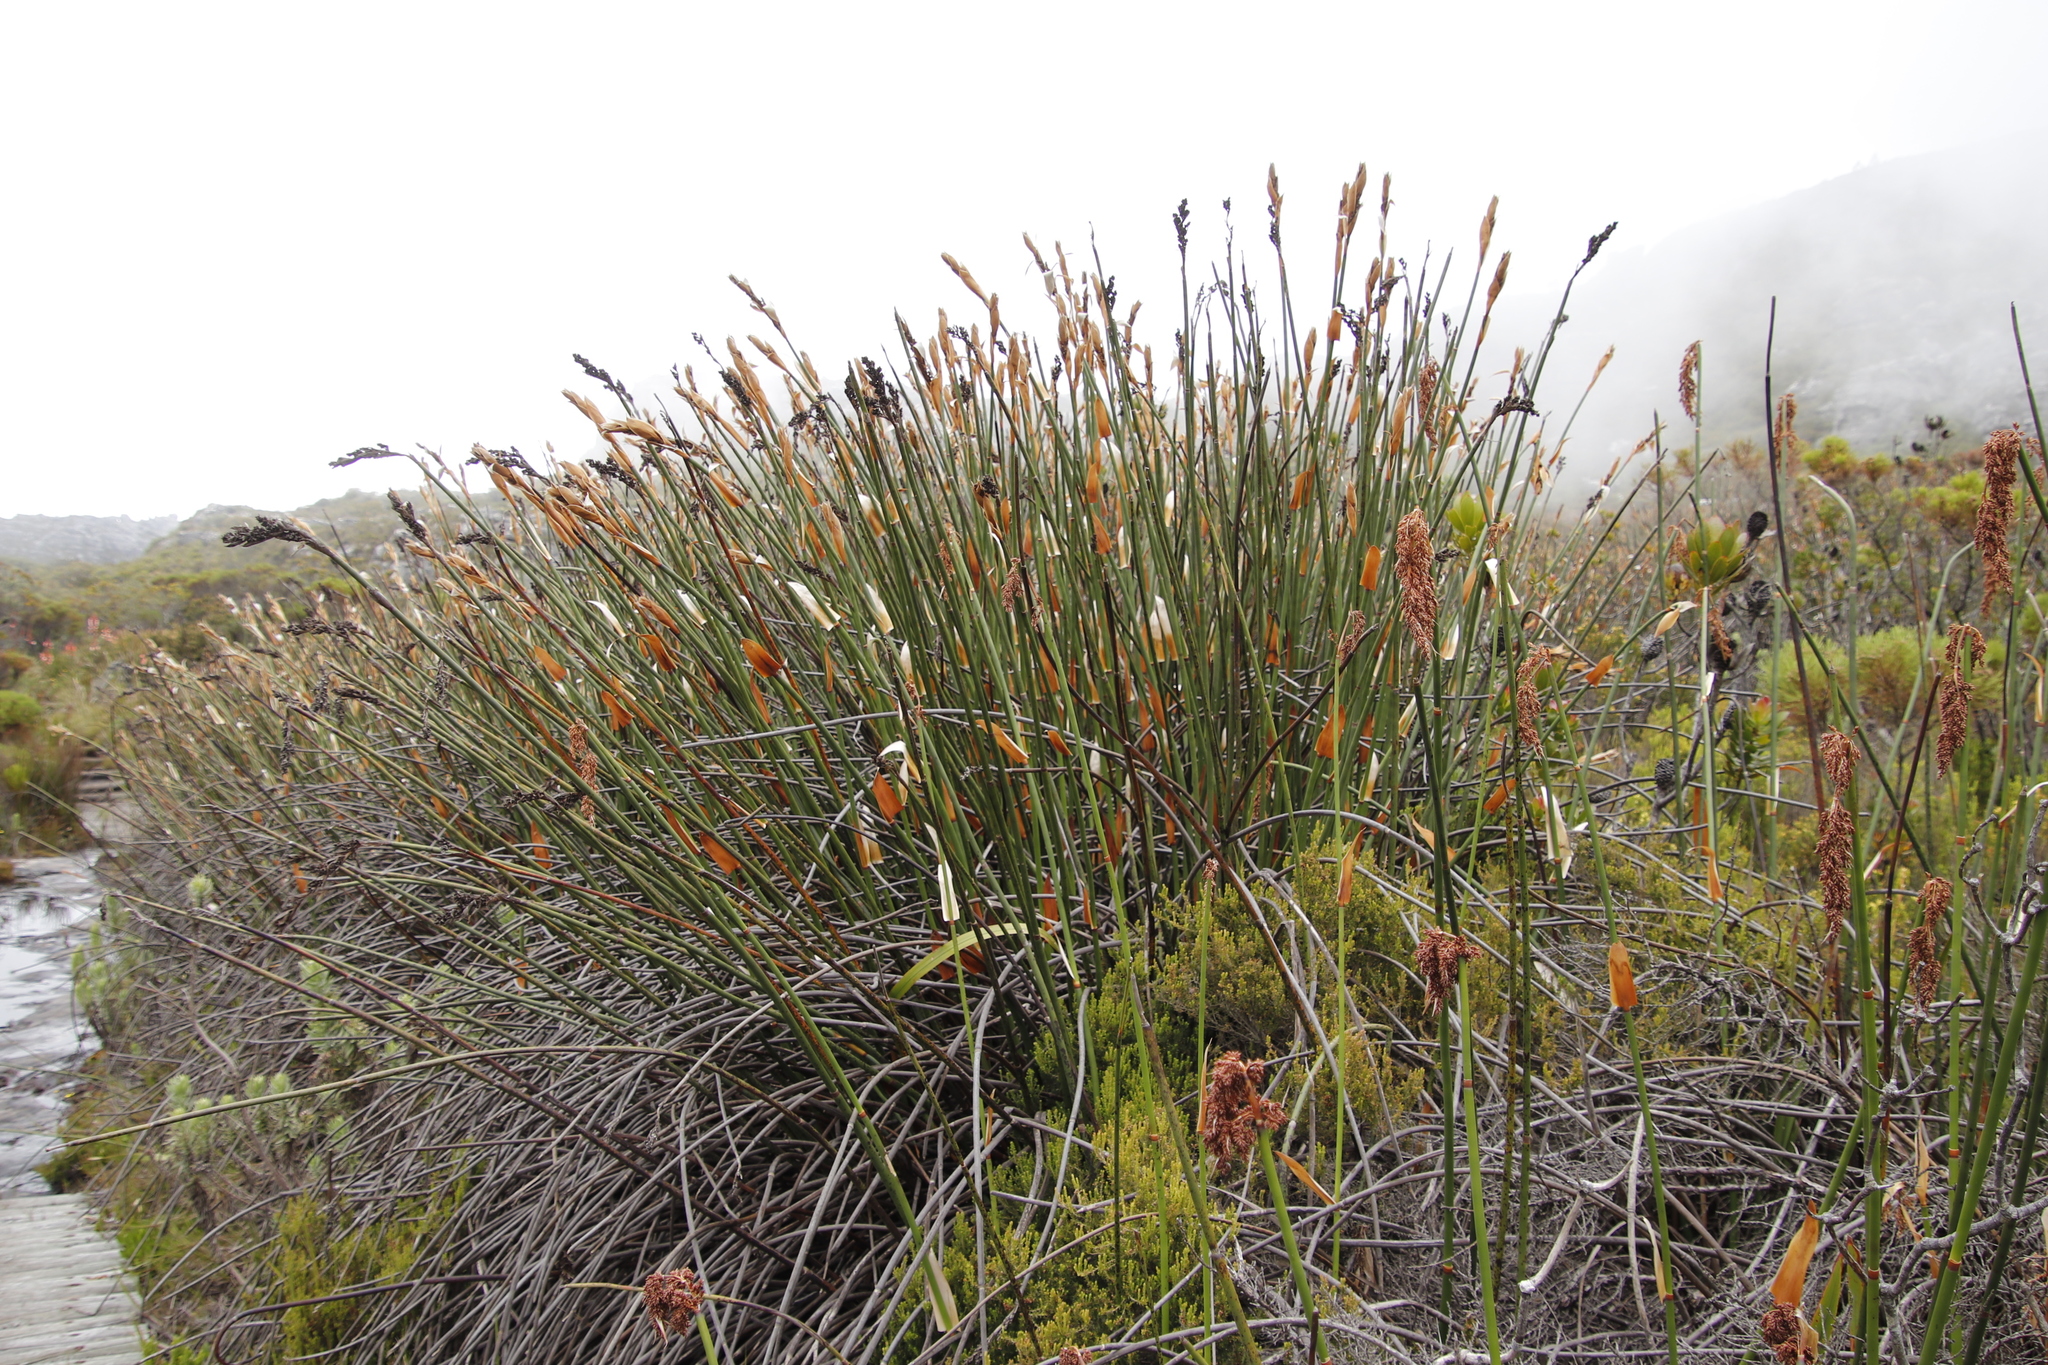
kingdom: Plantae
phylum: Tracheophyta
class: Liliopsida
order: Poales
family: Restionaceae
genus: Elegia
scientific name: Elegia mucronata
